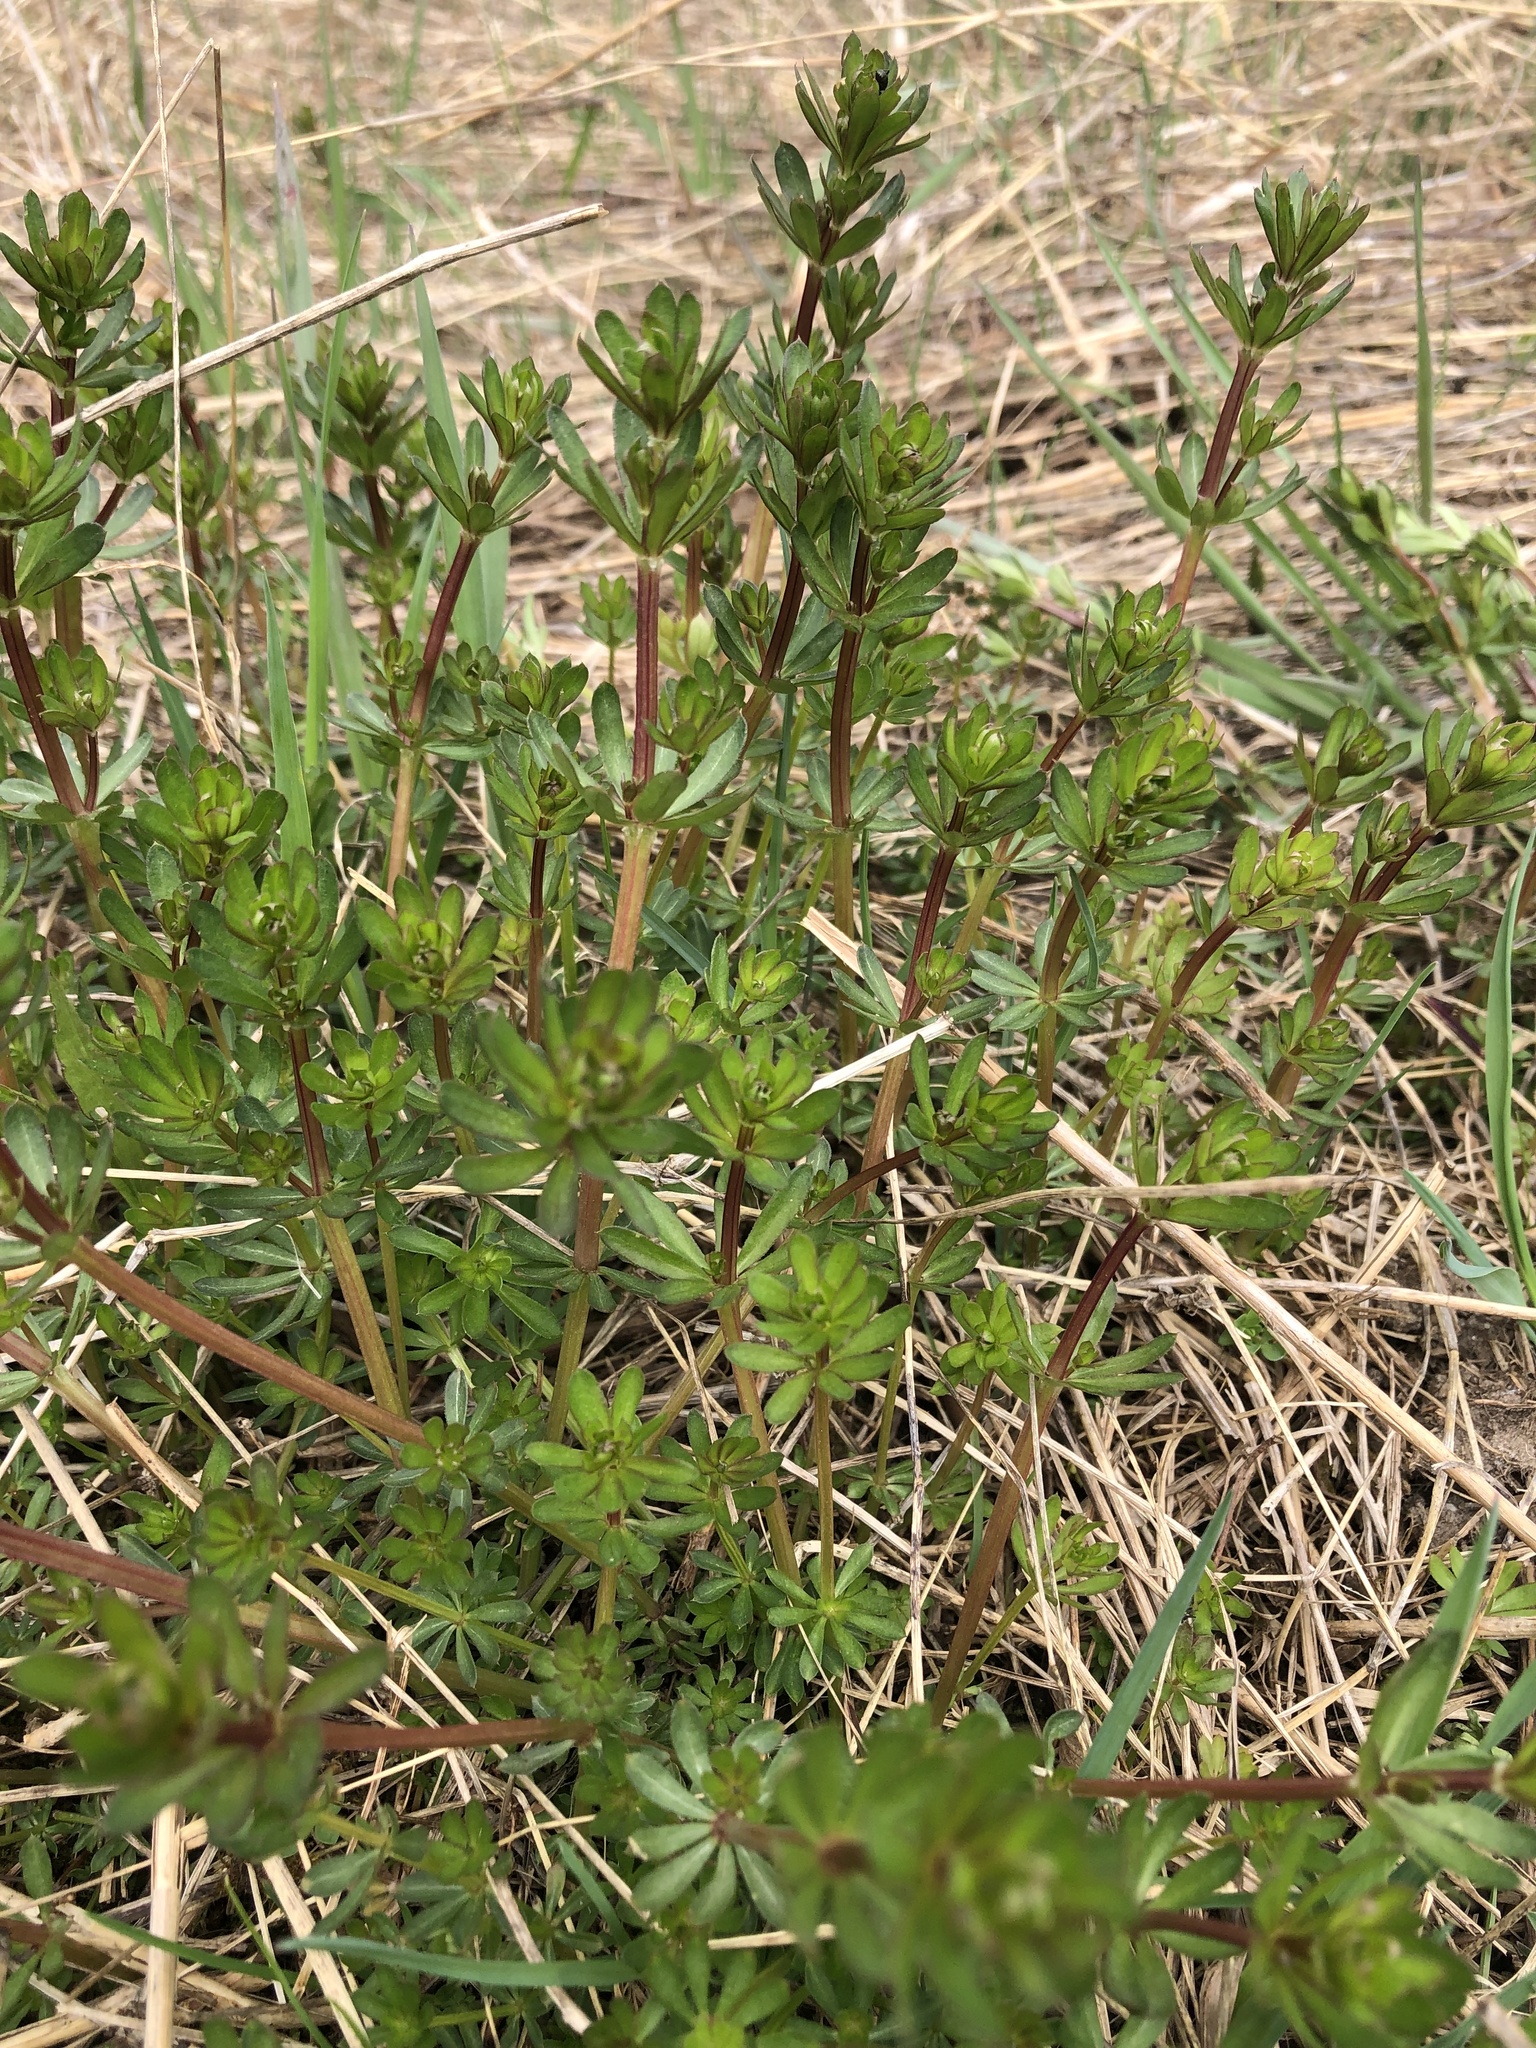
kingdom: Plantae
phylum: Tracheophyta
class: Magnoliopsida
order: Gentianales
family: Rubiaceae
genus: Galium
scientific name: Galium album
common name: White bedstraw
